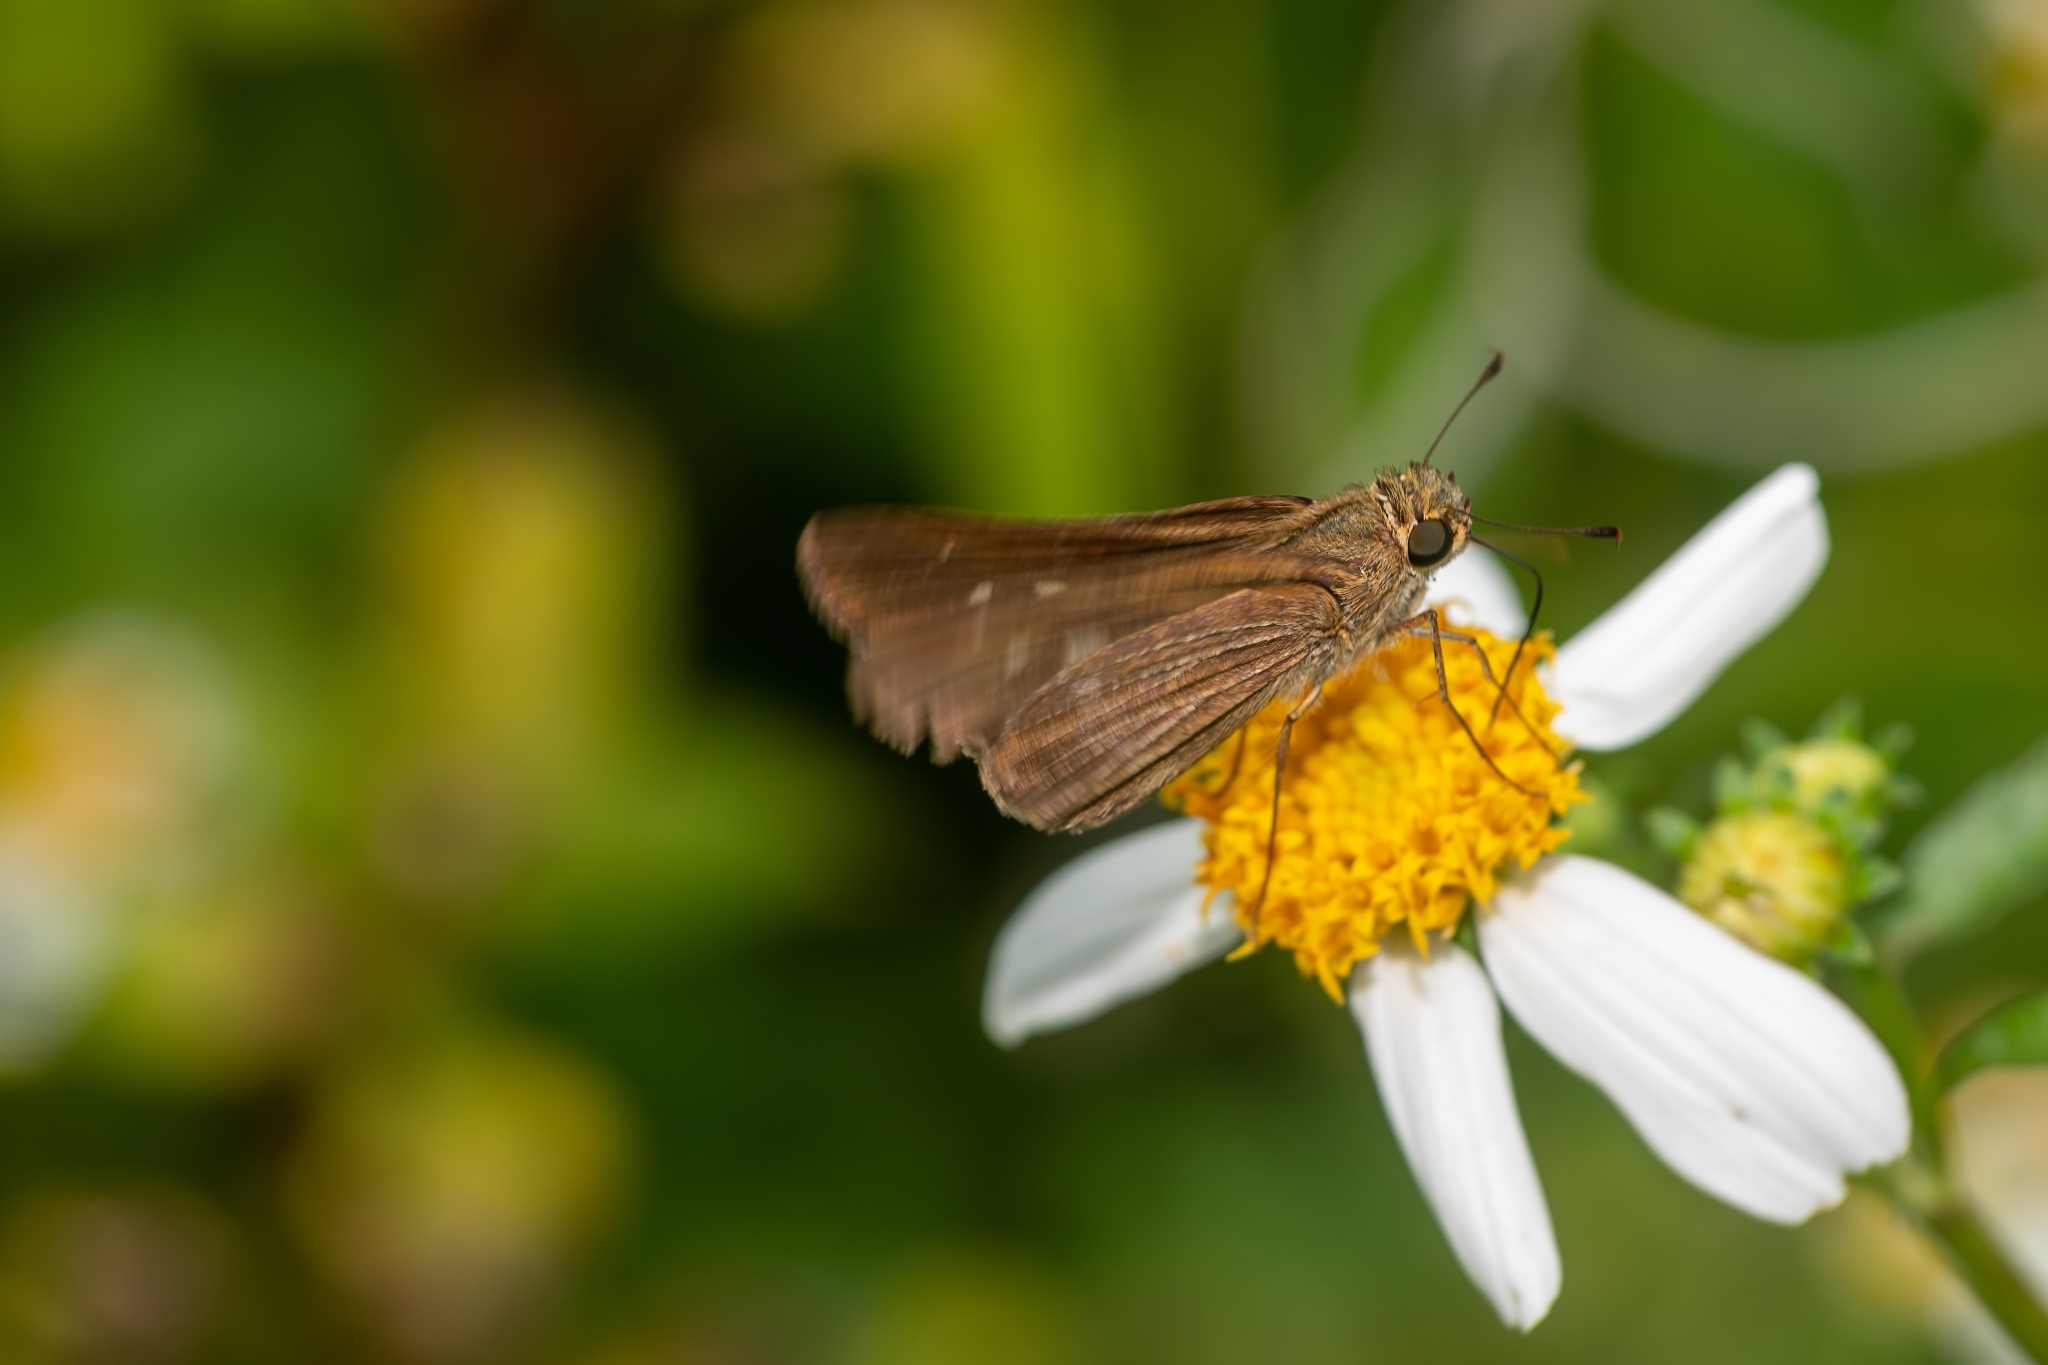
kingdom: Animalia
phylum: Arthropoda
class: Insecta
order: Lepidoptera
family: Hesperiidae
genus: Panoquina
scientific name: Panoquina ocola
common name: Ocola skipper
